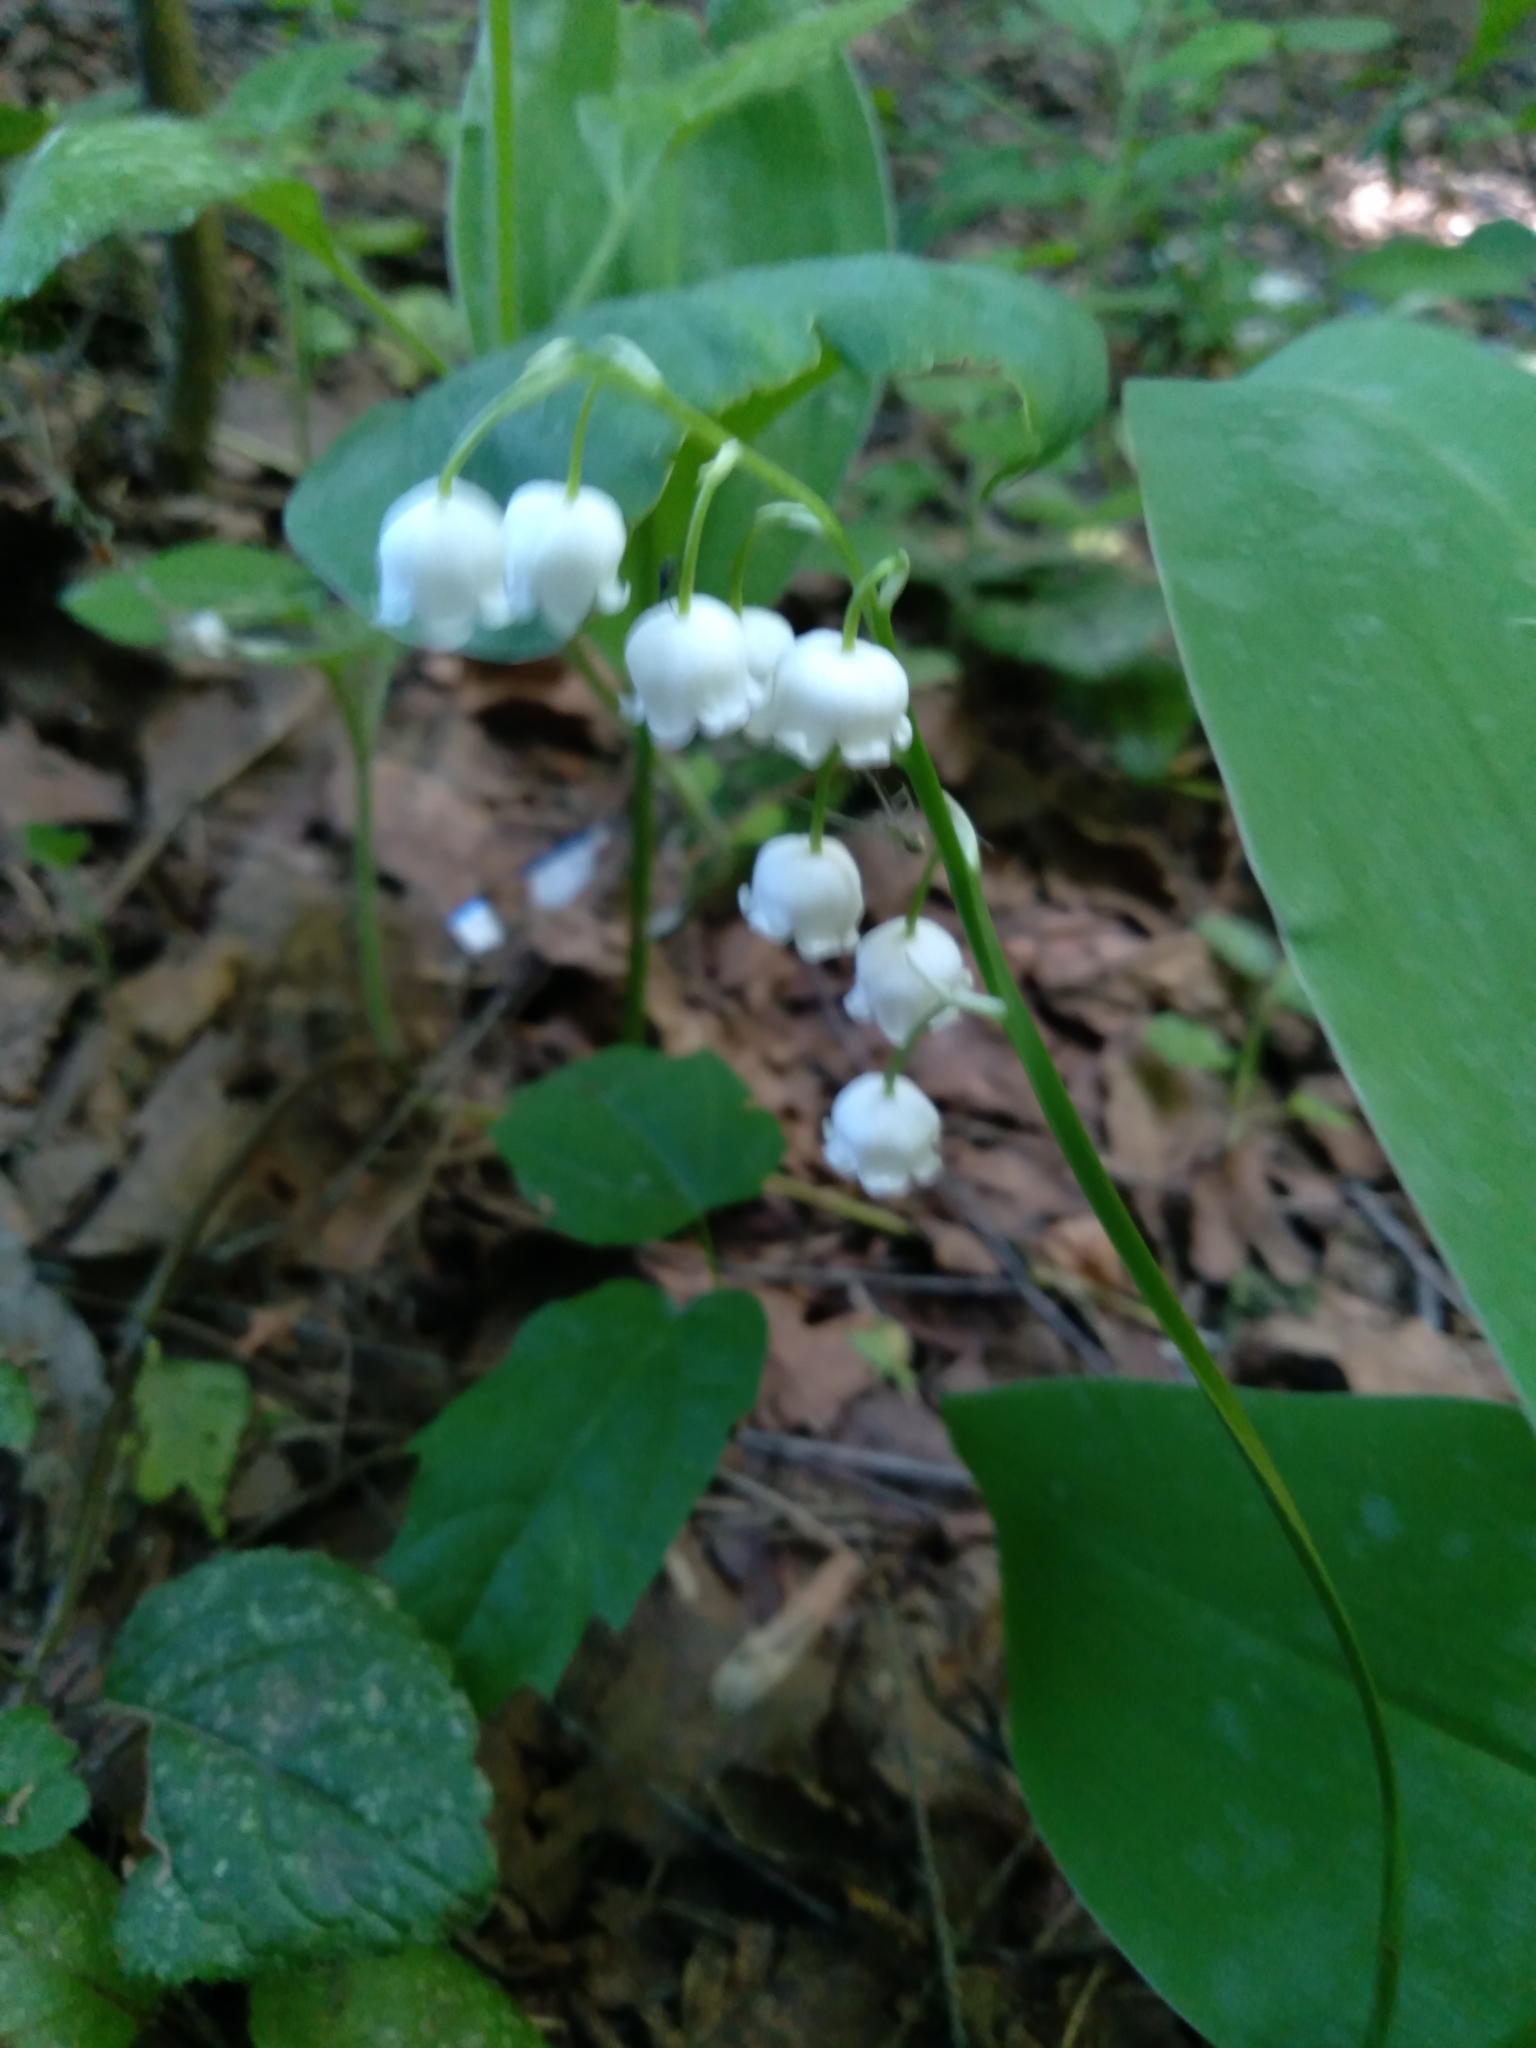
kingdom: Plantae
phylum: Tracheophyta
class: Liliopsida
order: Asparagales
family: Asparagaceae
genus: Convallaria
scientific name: Convallaria majalis
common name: Lily-of-the-valley
